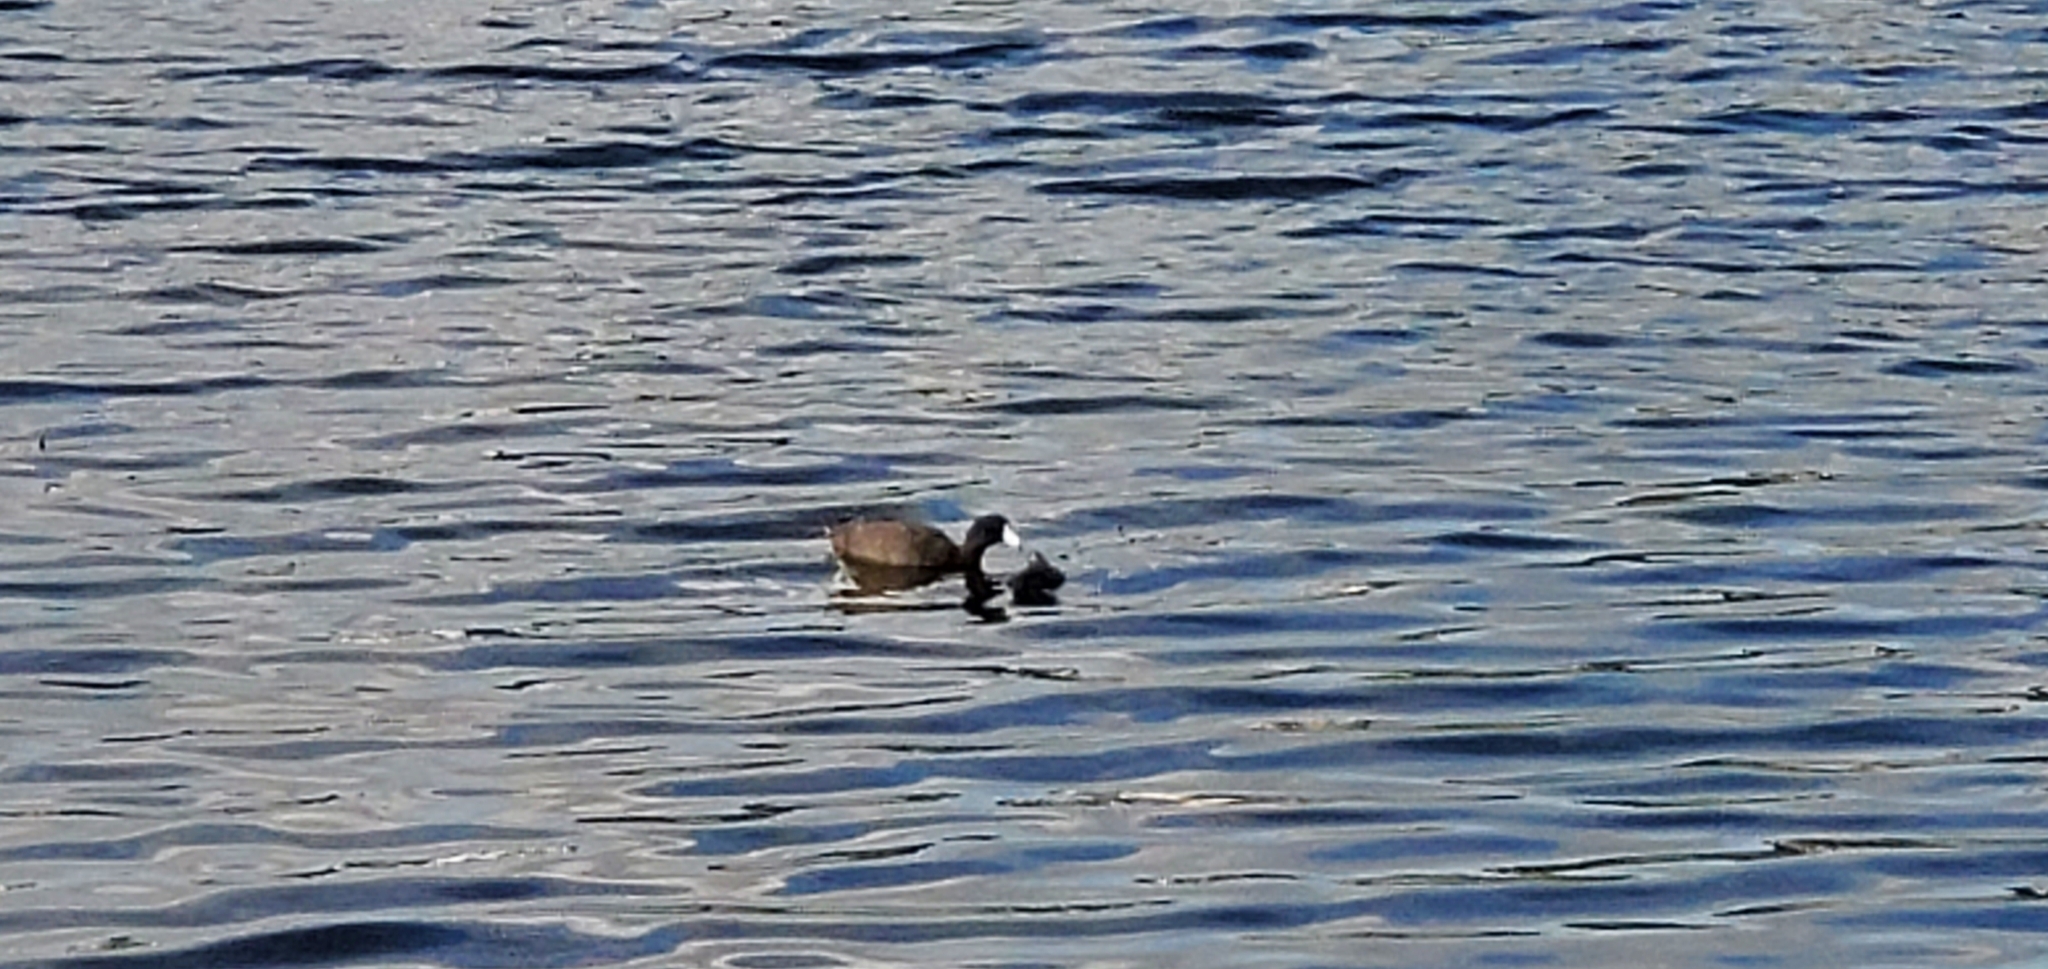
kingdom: Animalia
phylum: Chordata
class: Aves
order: Gruiformes
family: Rallidae
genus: Fulica
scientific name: Fulica americana
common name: American coot
